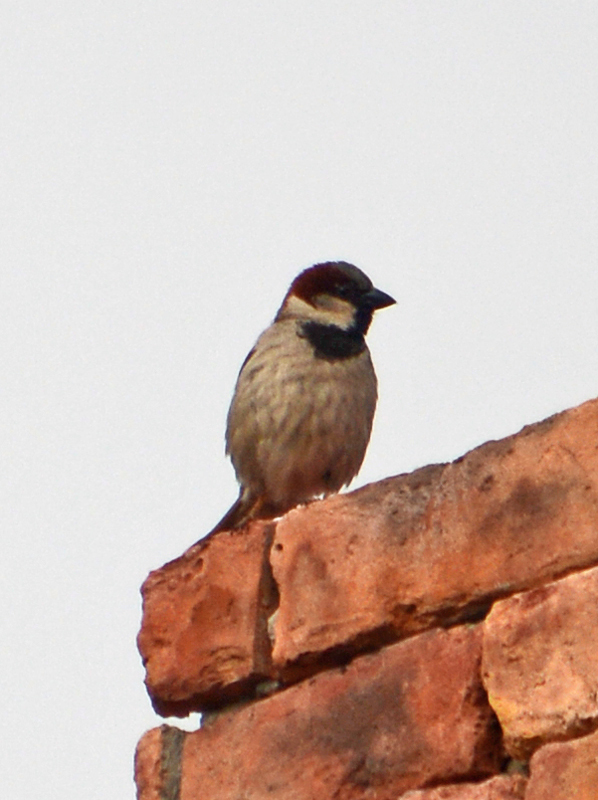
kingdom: Animalia
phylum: Chordata
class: Aves
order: Passeriformes
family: Passeridae
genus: Passer
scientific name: Passer domesticus
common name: House sparrow
